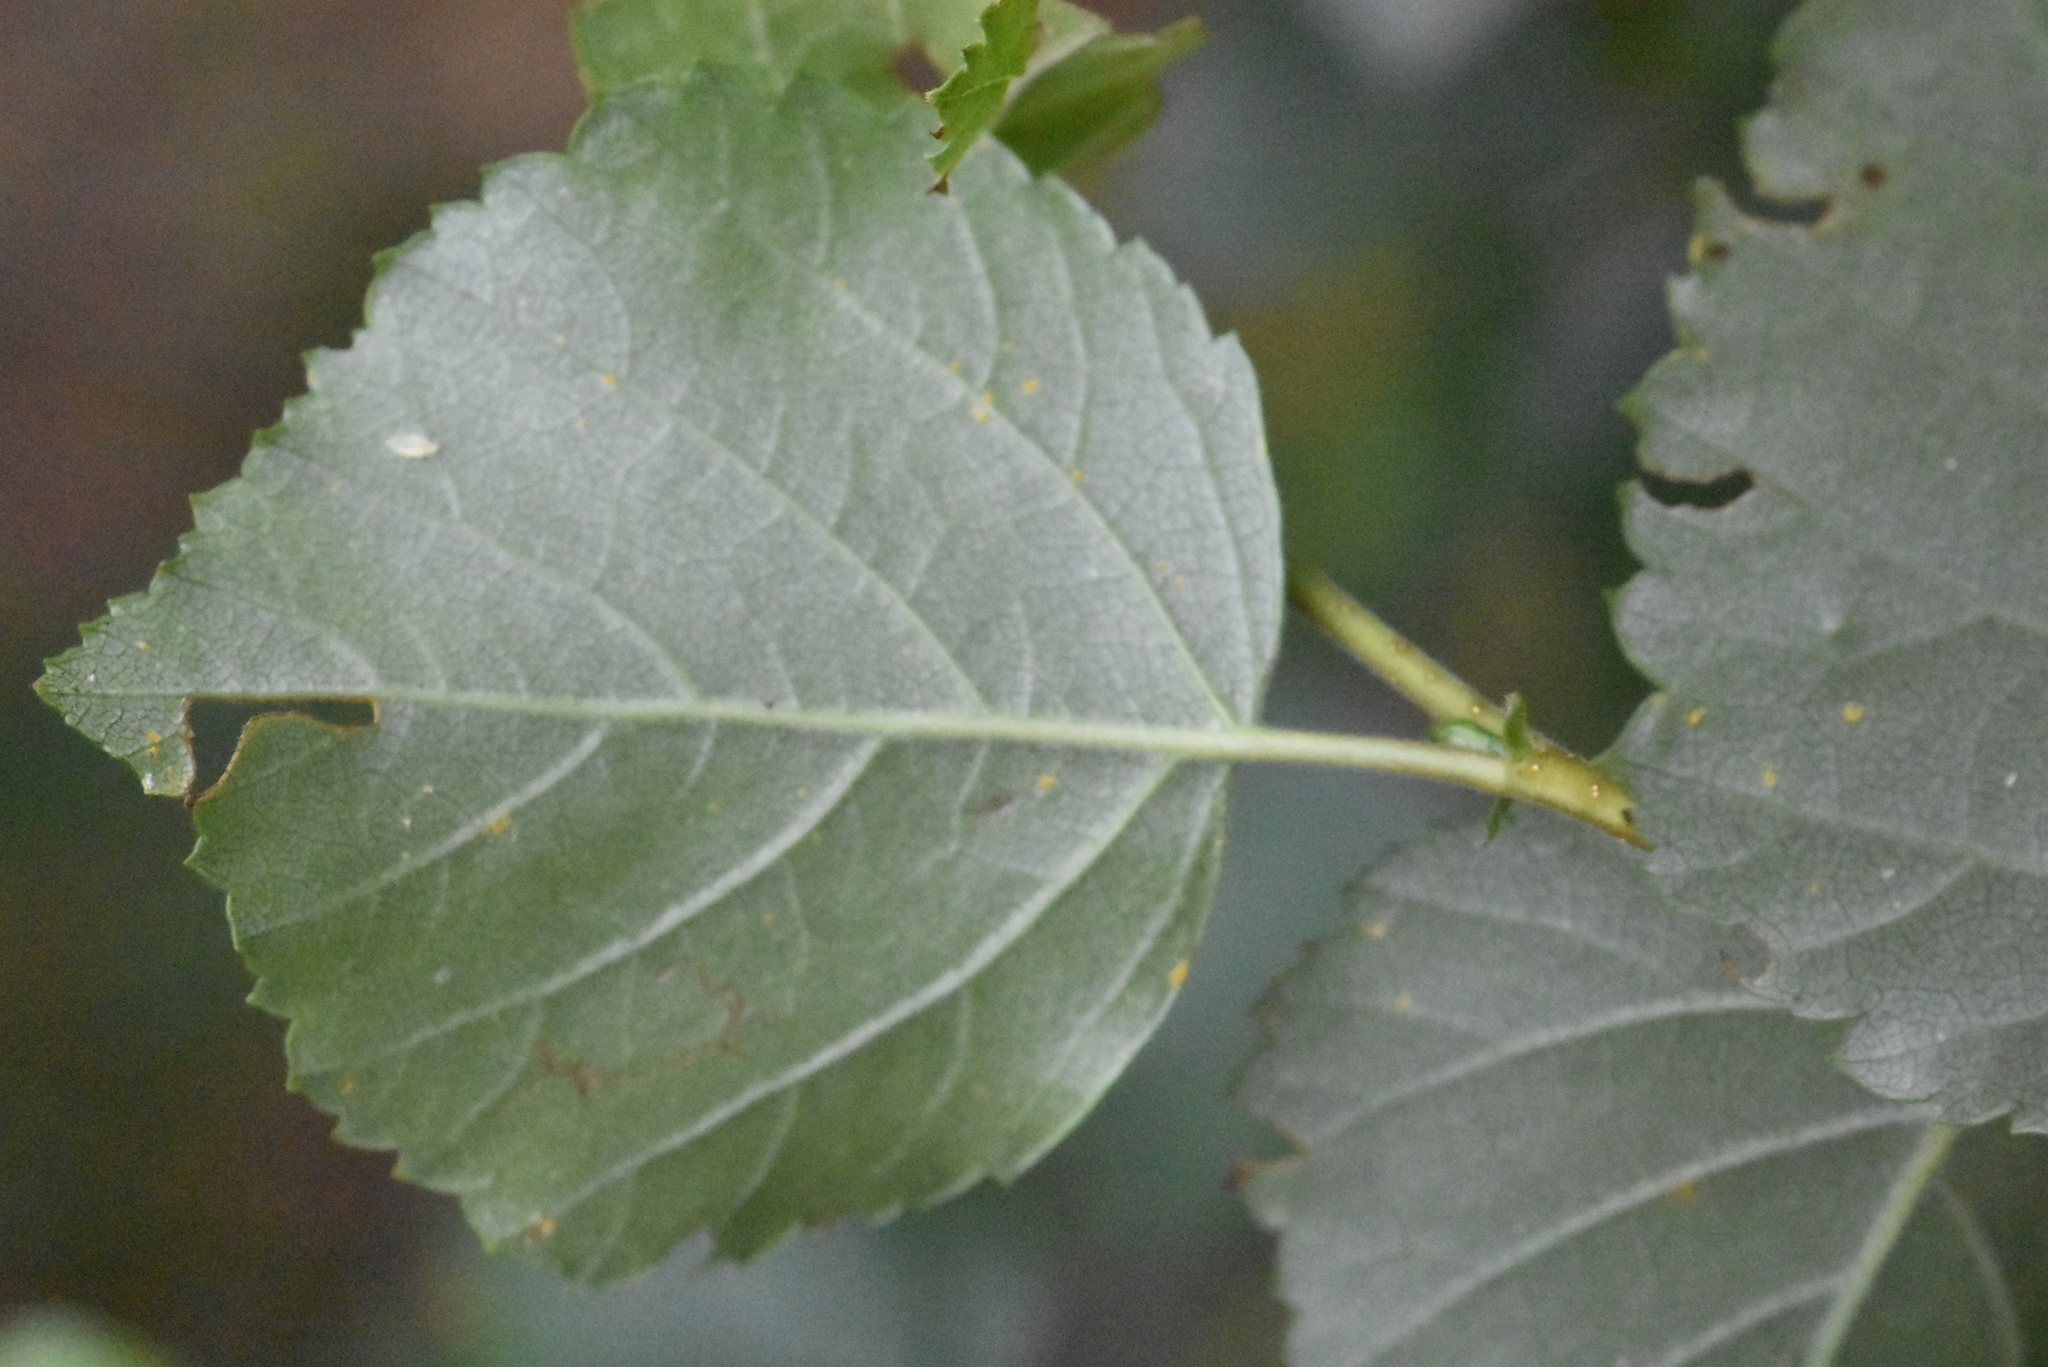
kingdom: Plantae
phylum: Tracheophyta
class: Magnoliopsida
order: Fagales
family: Betulaceae
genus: Betula
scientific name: Betula pubescens
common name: Downy birch
